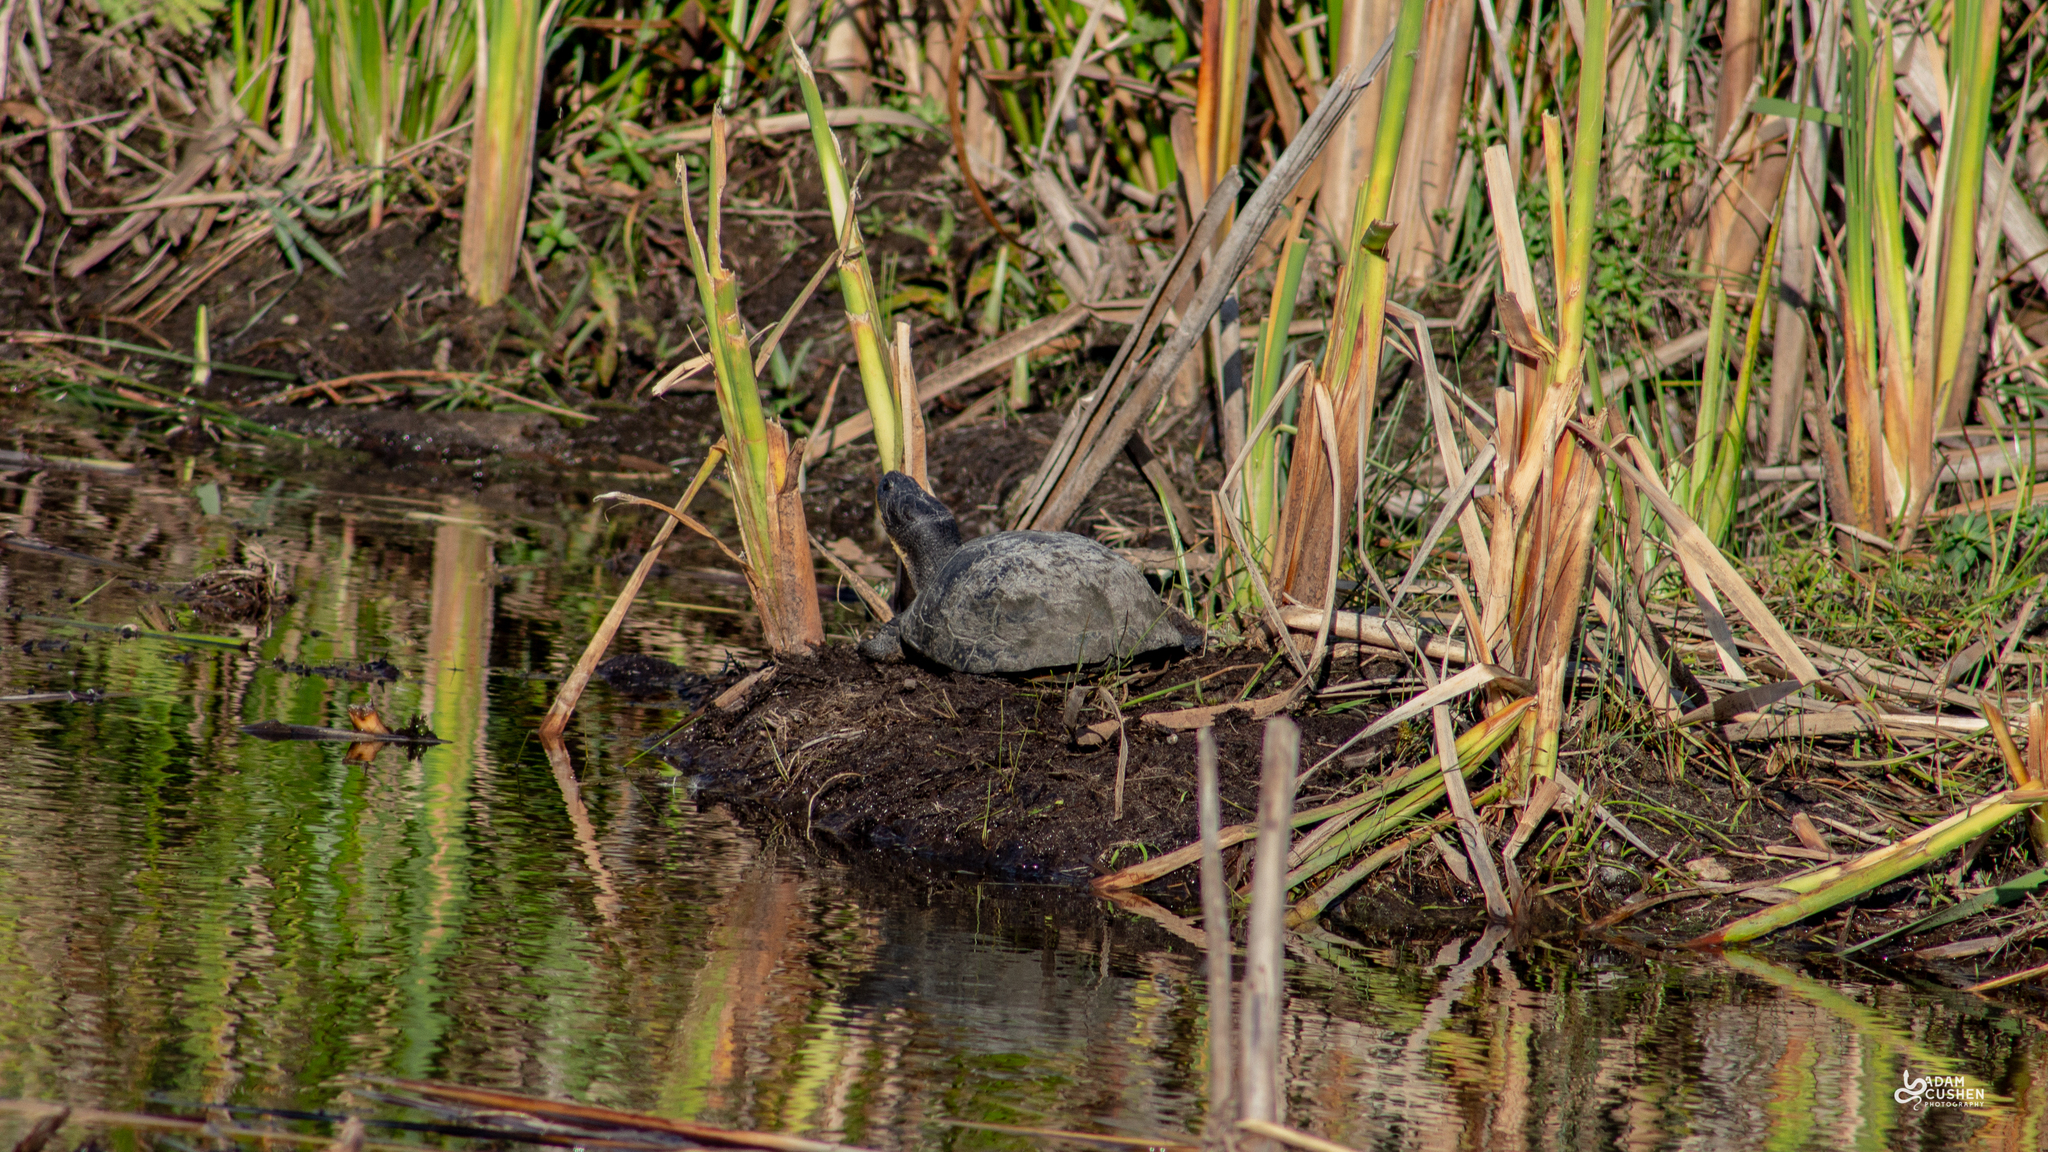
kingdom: Animalia
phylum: Chordata
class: Testudines
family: Emydidae
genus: Emys
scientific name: Emys blandingii
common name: Blanding's turtle
